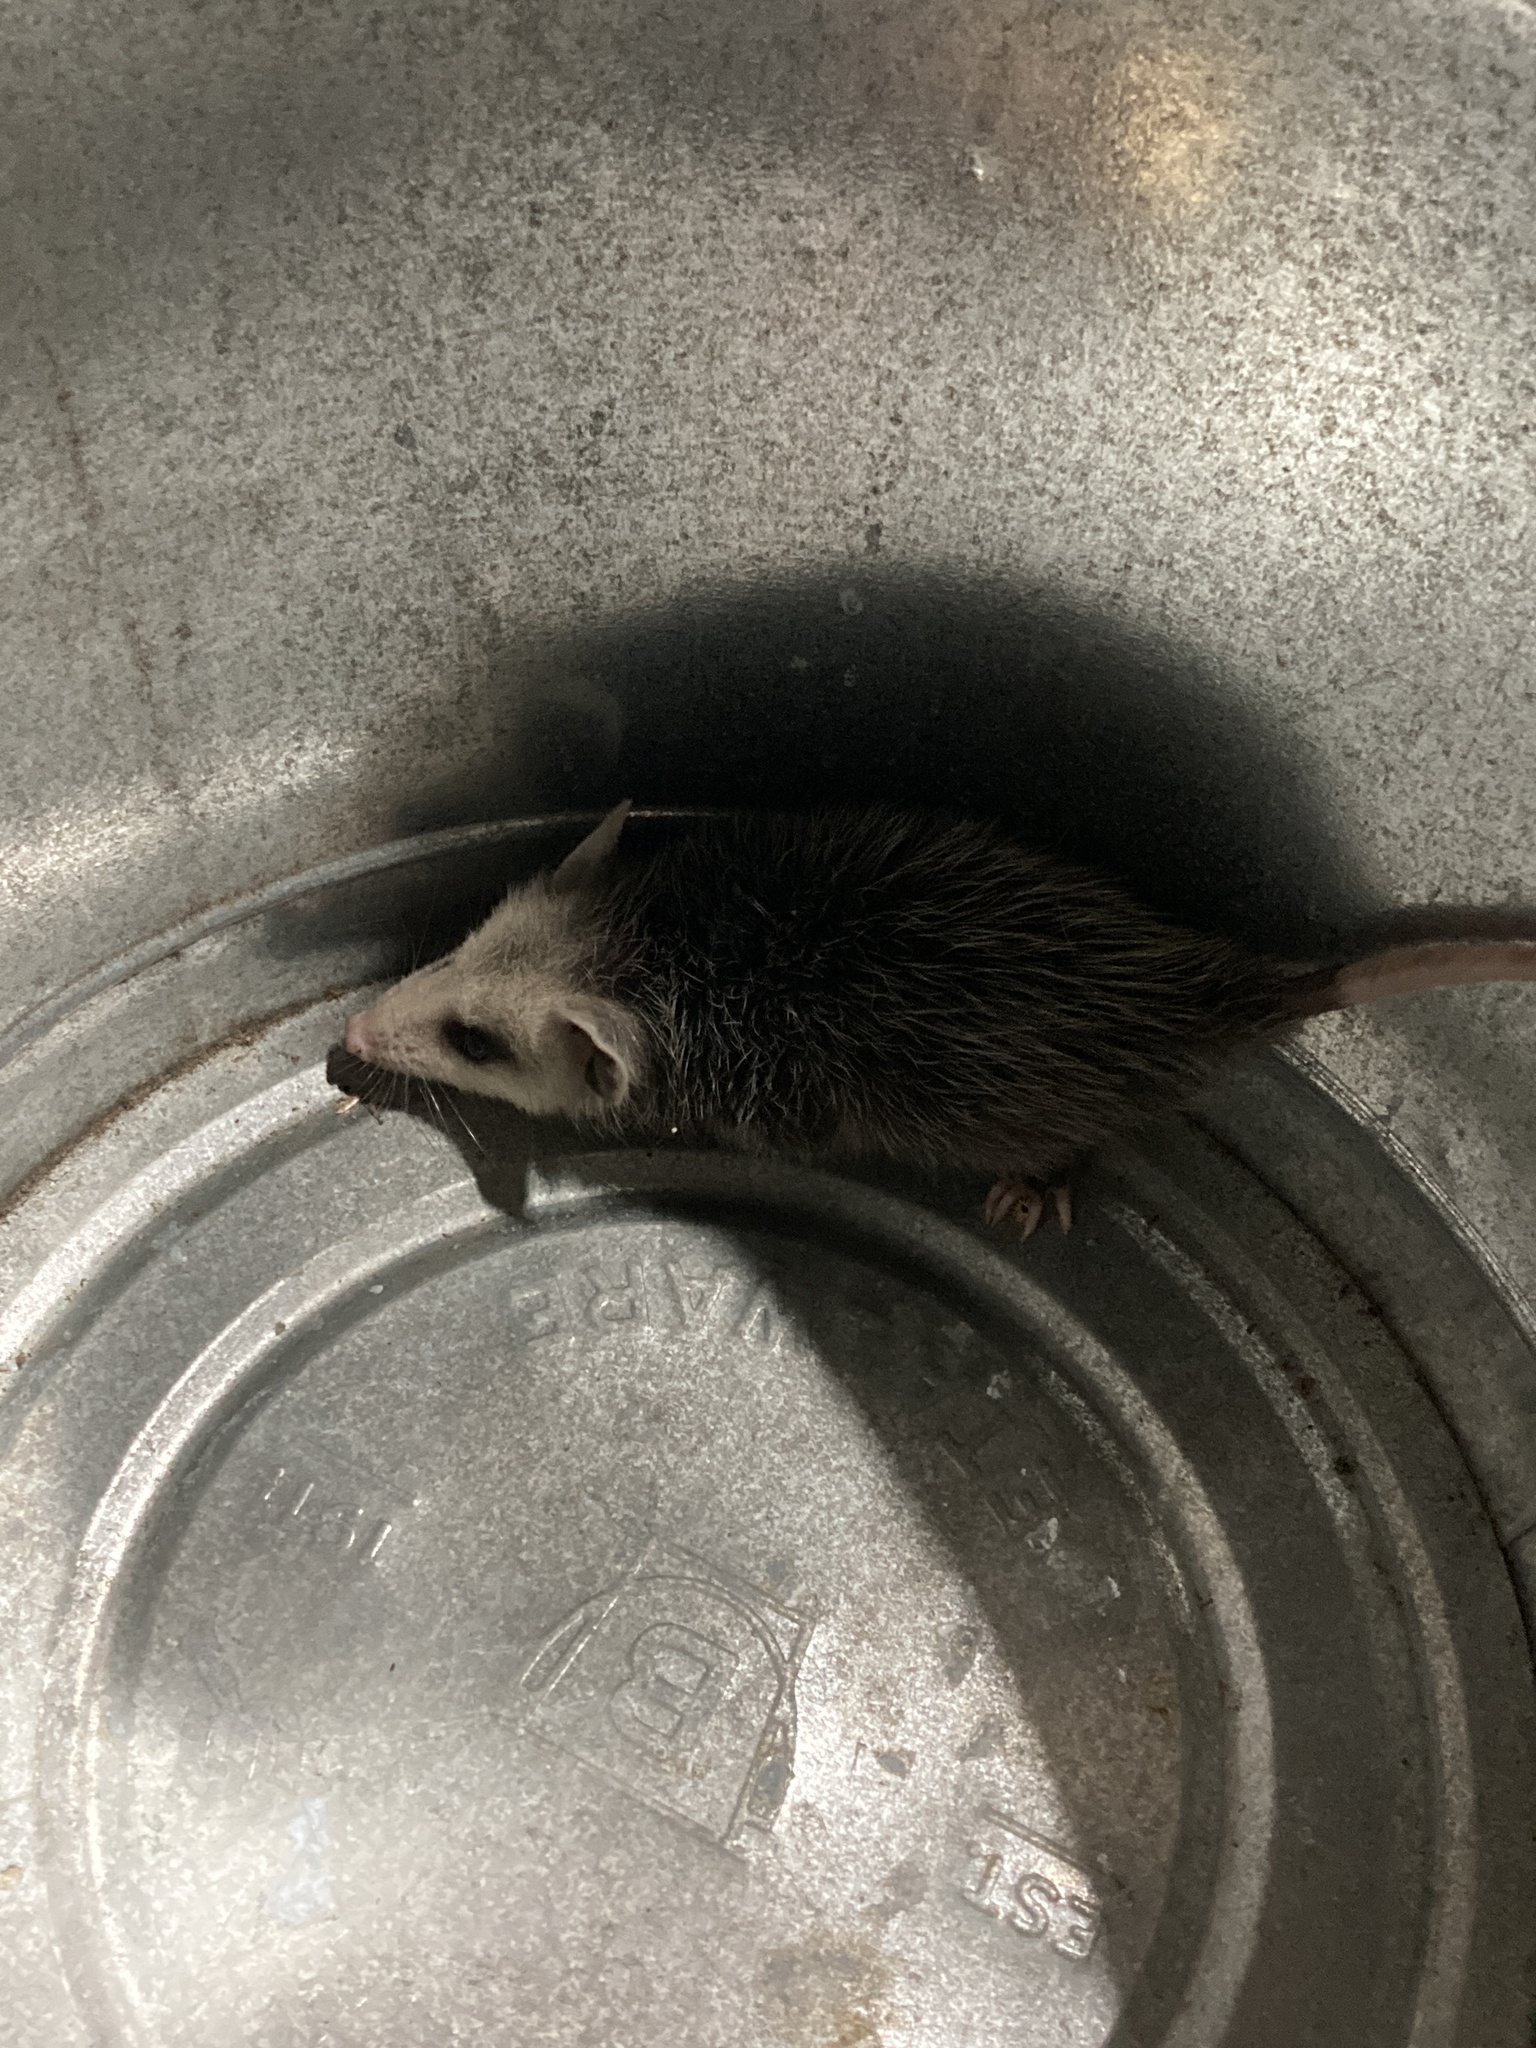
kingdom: Animalia
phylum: Chordata
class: Mammalia
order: Didelphimorphia
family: Didelphidae
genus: Didelphis
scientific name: Didelphis virginiana
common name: Virginia opossum
